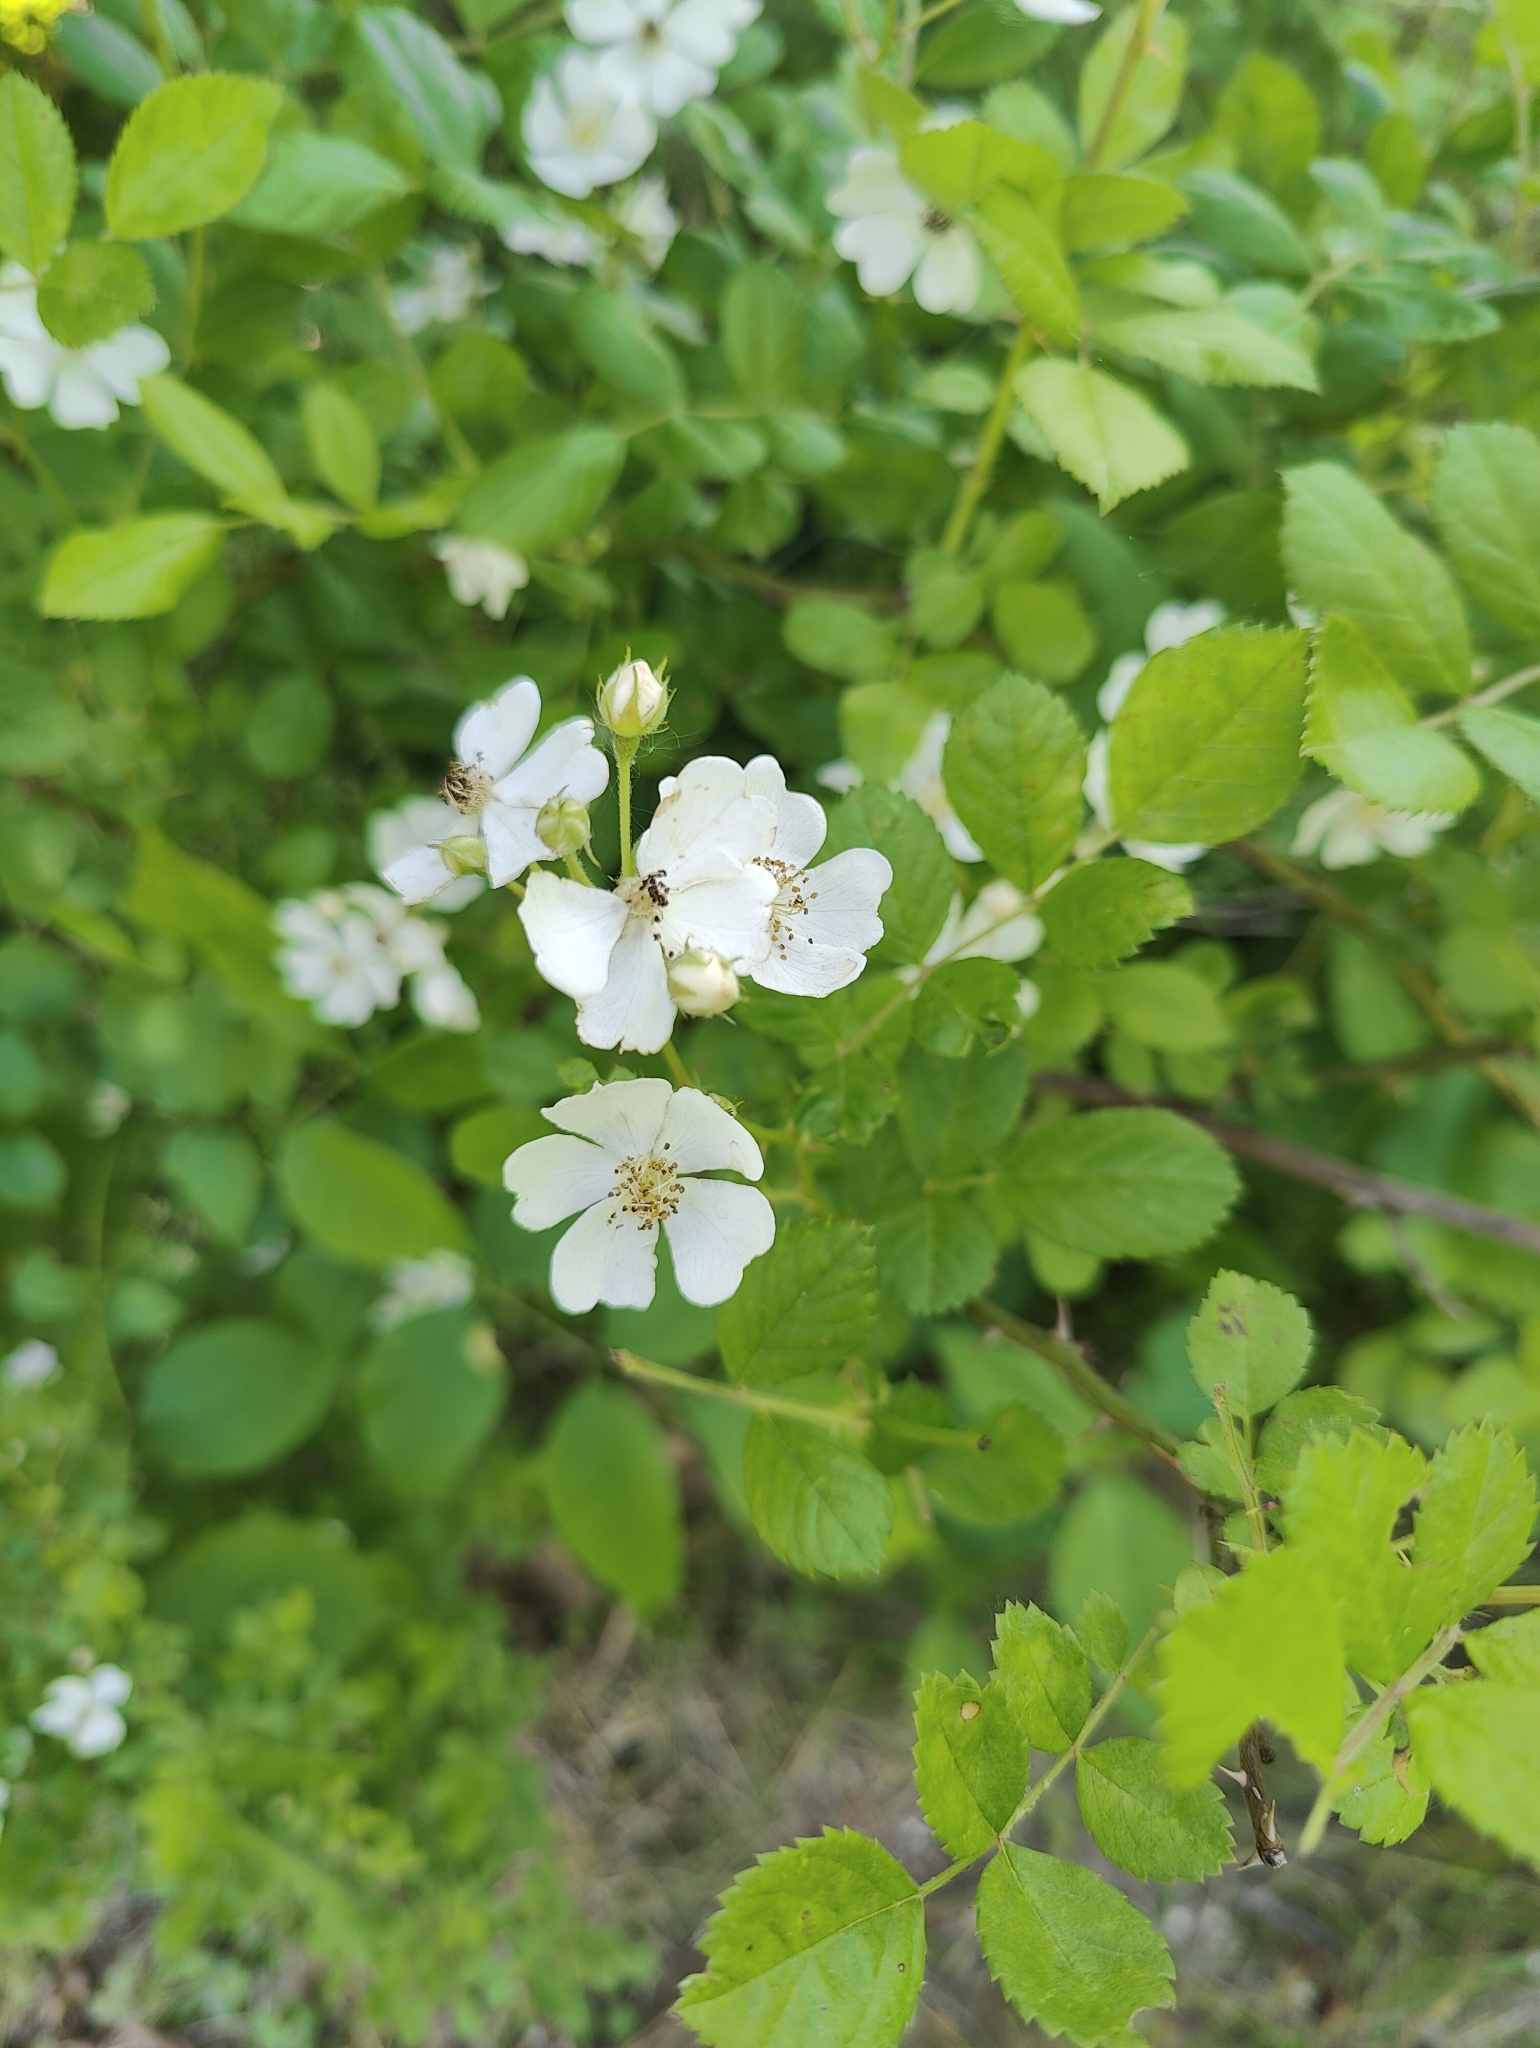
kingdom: Plantae
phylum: Tracheophyta
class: Magnoliopsida
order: Rosales
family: Rosaceae
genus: Rosa
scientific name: Rosa multiflora
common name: Multiflora rose
